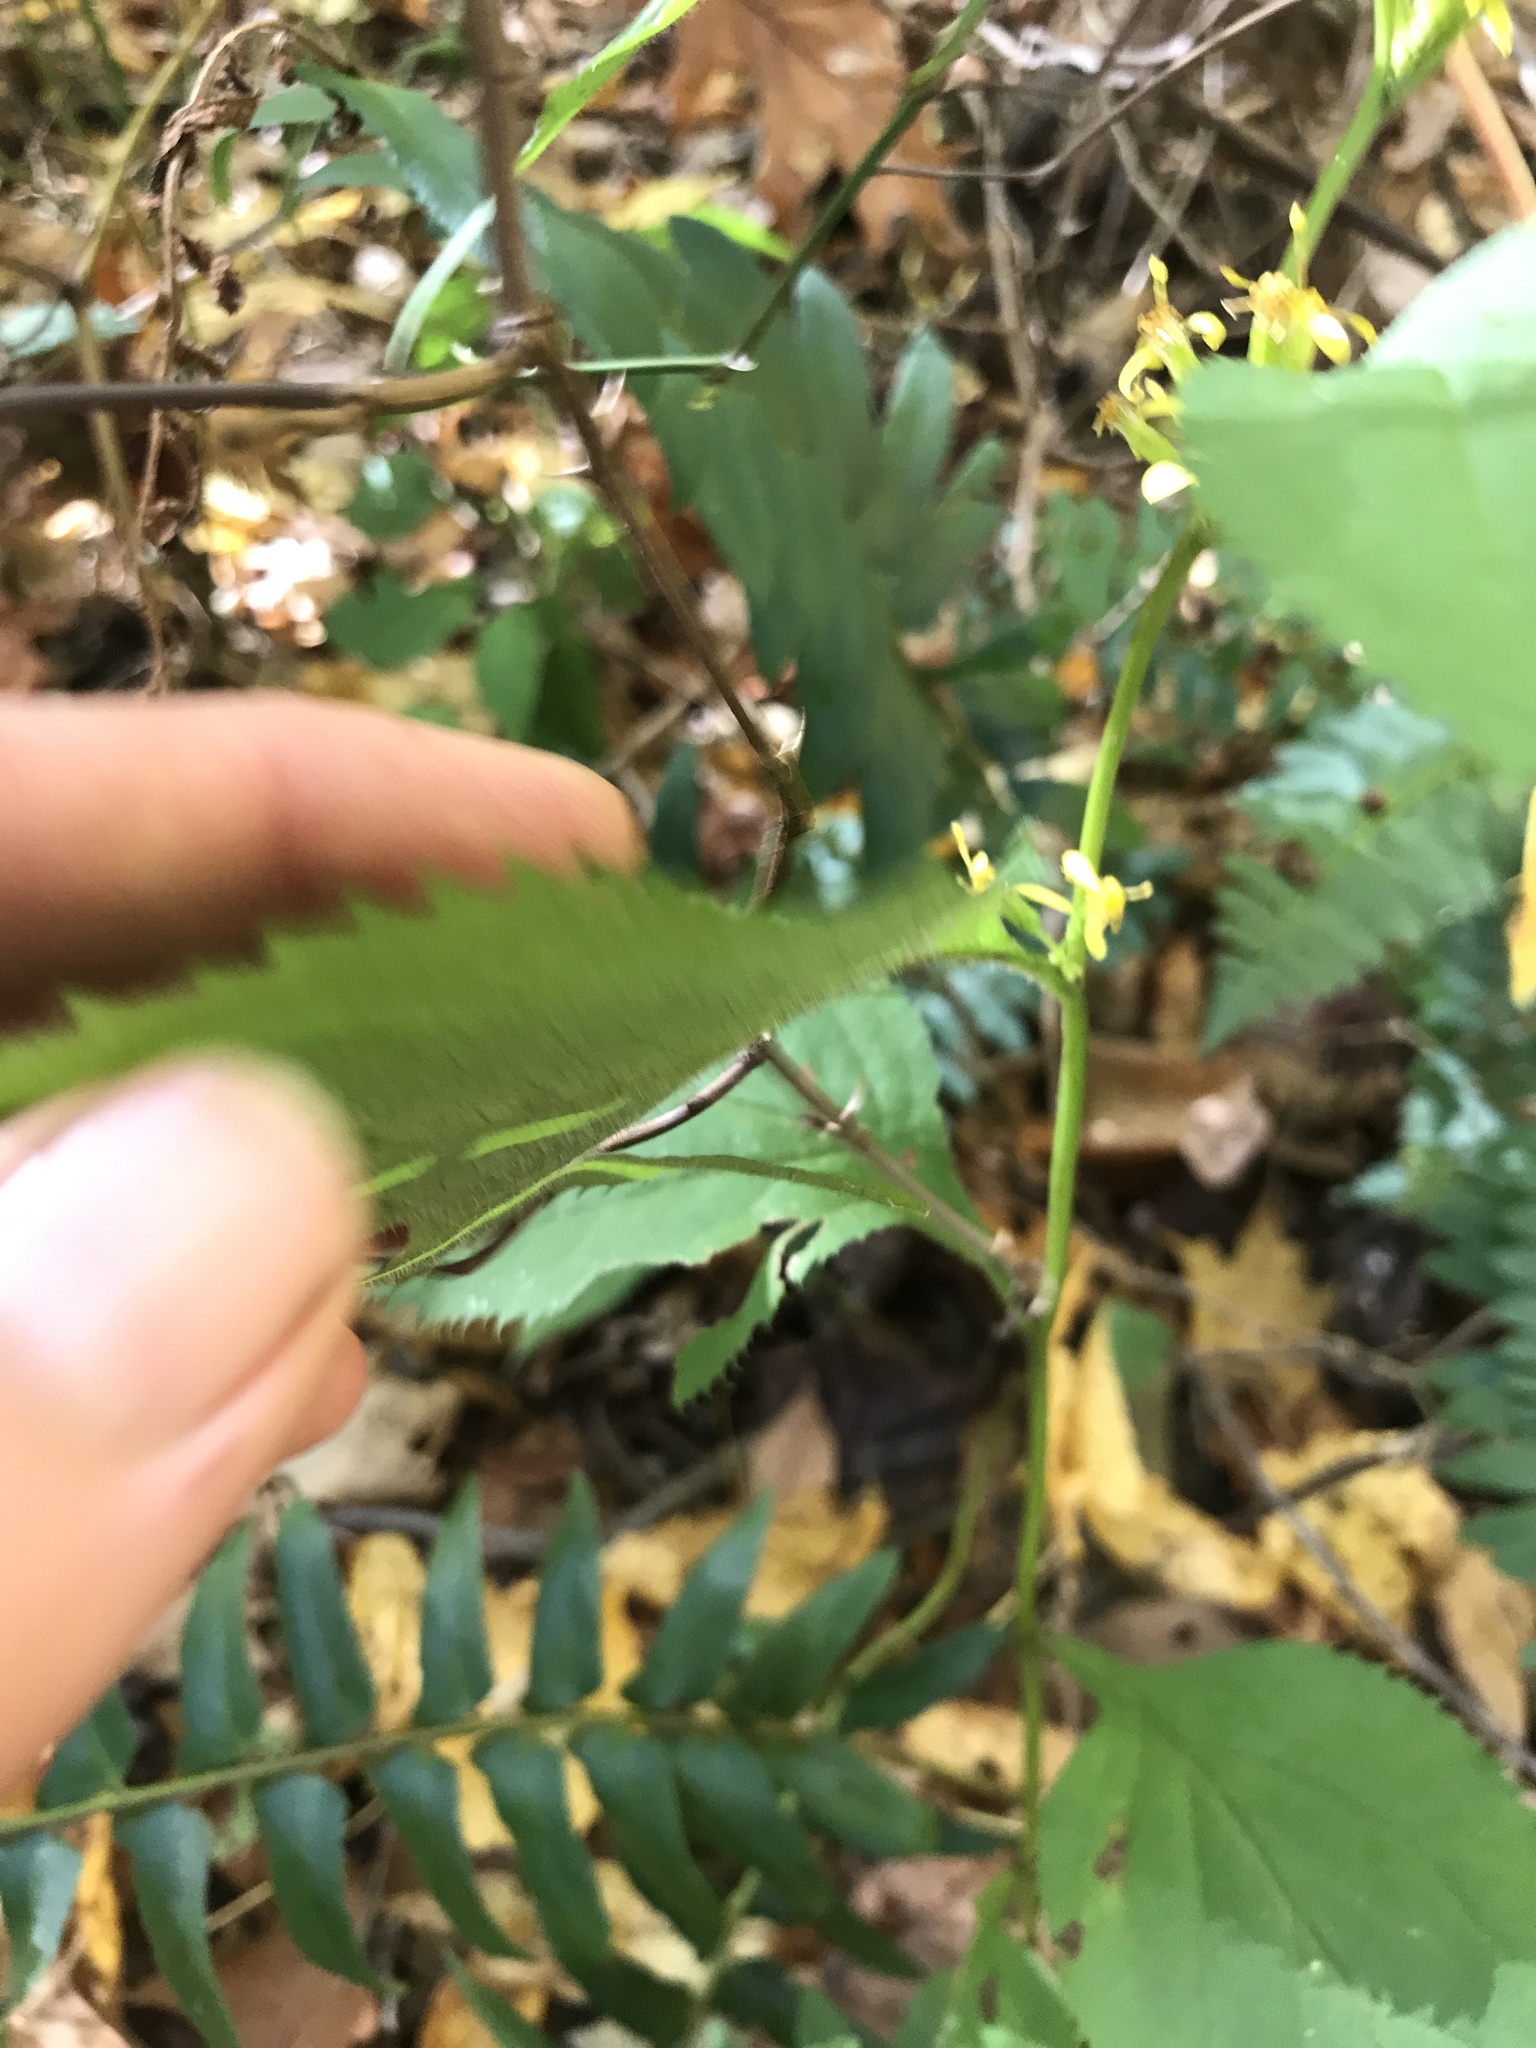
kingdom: Plantae
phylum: Tracheophyta
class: Magnoliopsida
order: Asterales
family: Asteraceae
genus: Solidago
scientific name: Solidago flexicaulis
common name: Zig-zag goldenrod
